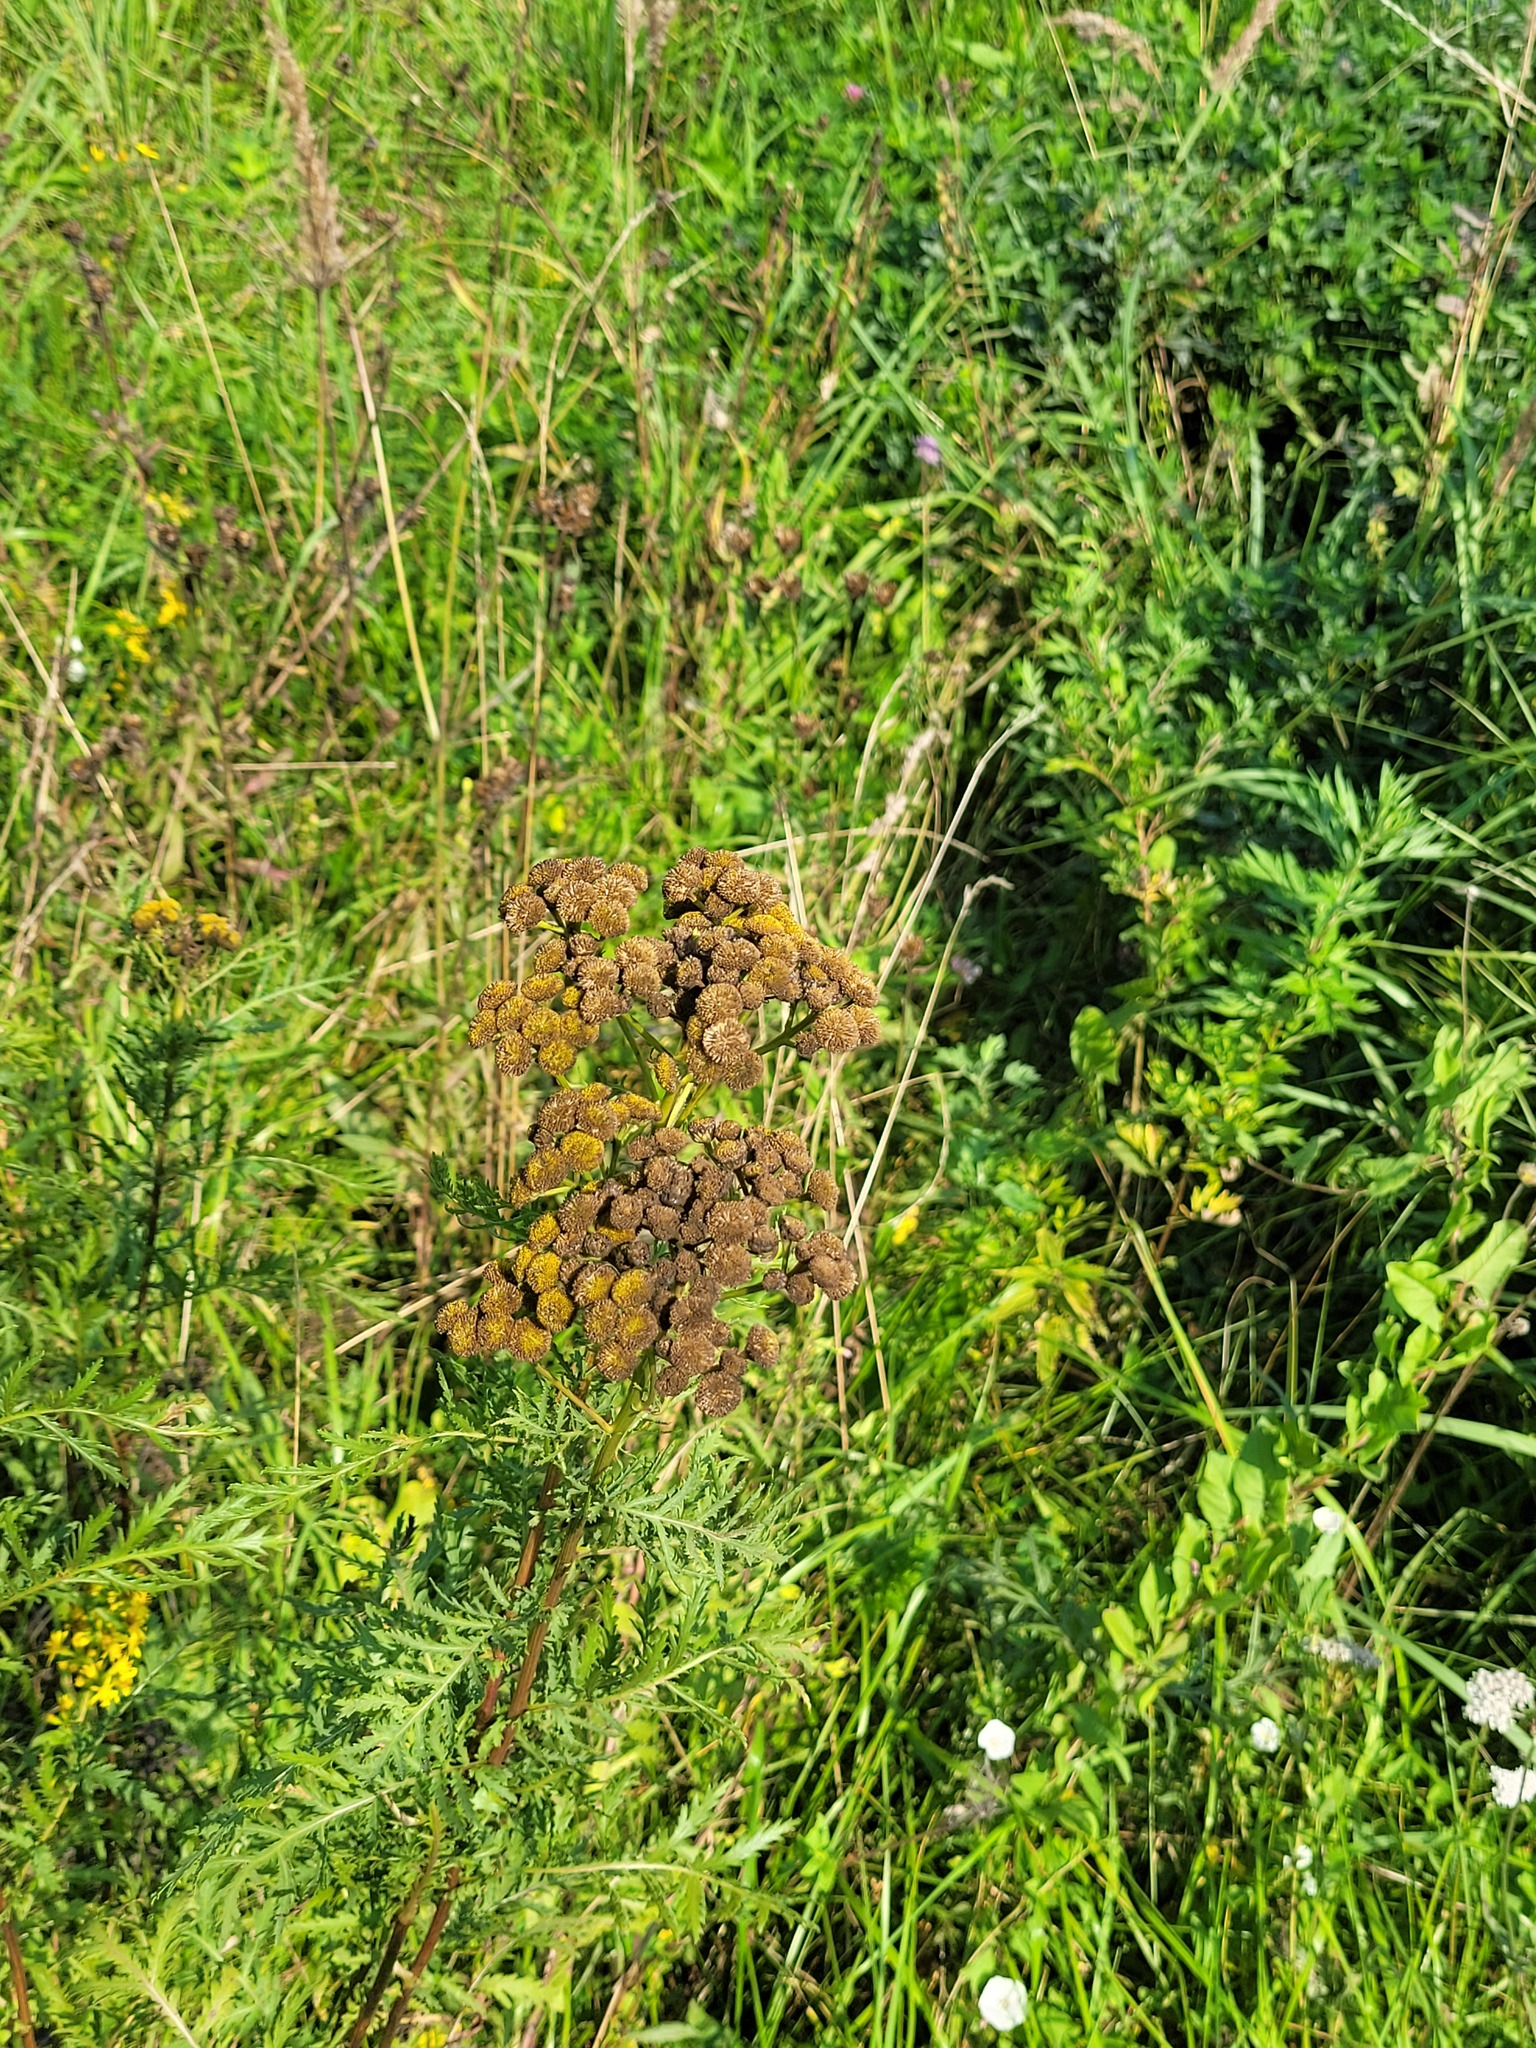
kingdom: Plantae
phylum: Tracheophyta
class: Magnoliopsida
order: Asterales
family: Asteraceae
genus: Tanacetum
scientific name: Tanacetum vulgare
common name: Common tansy
